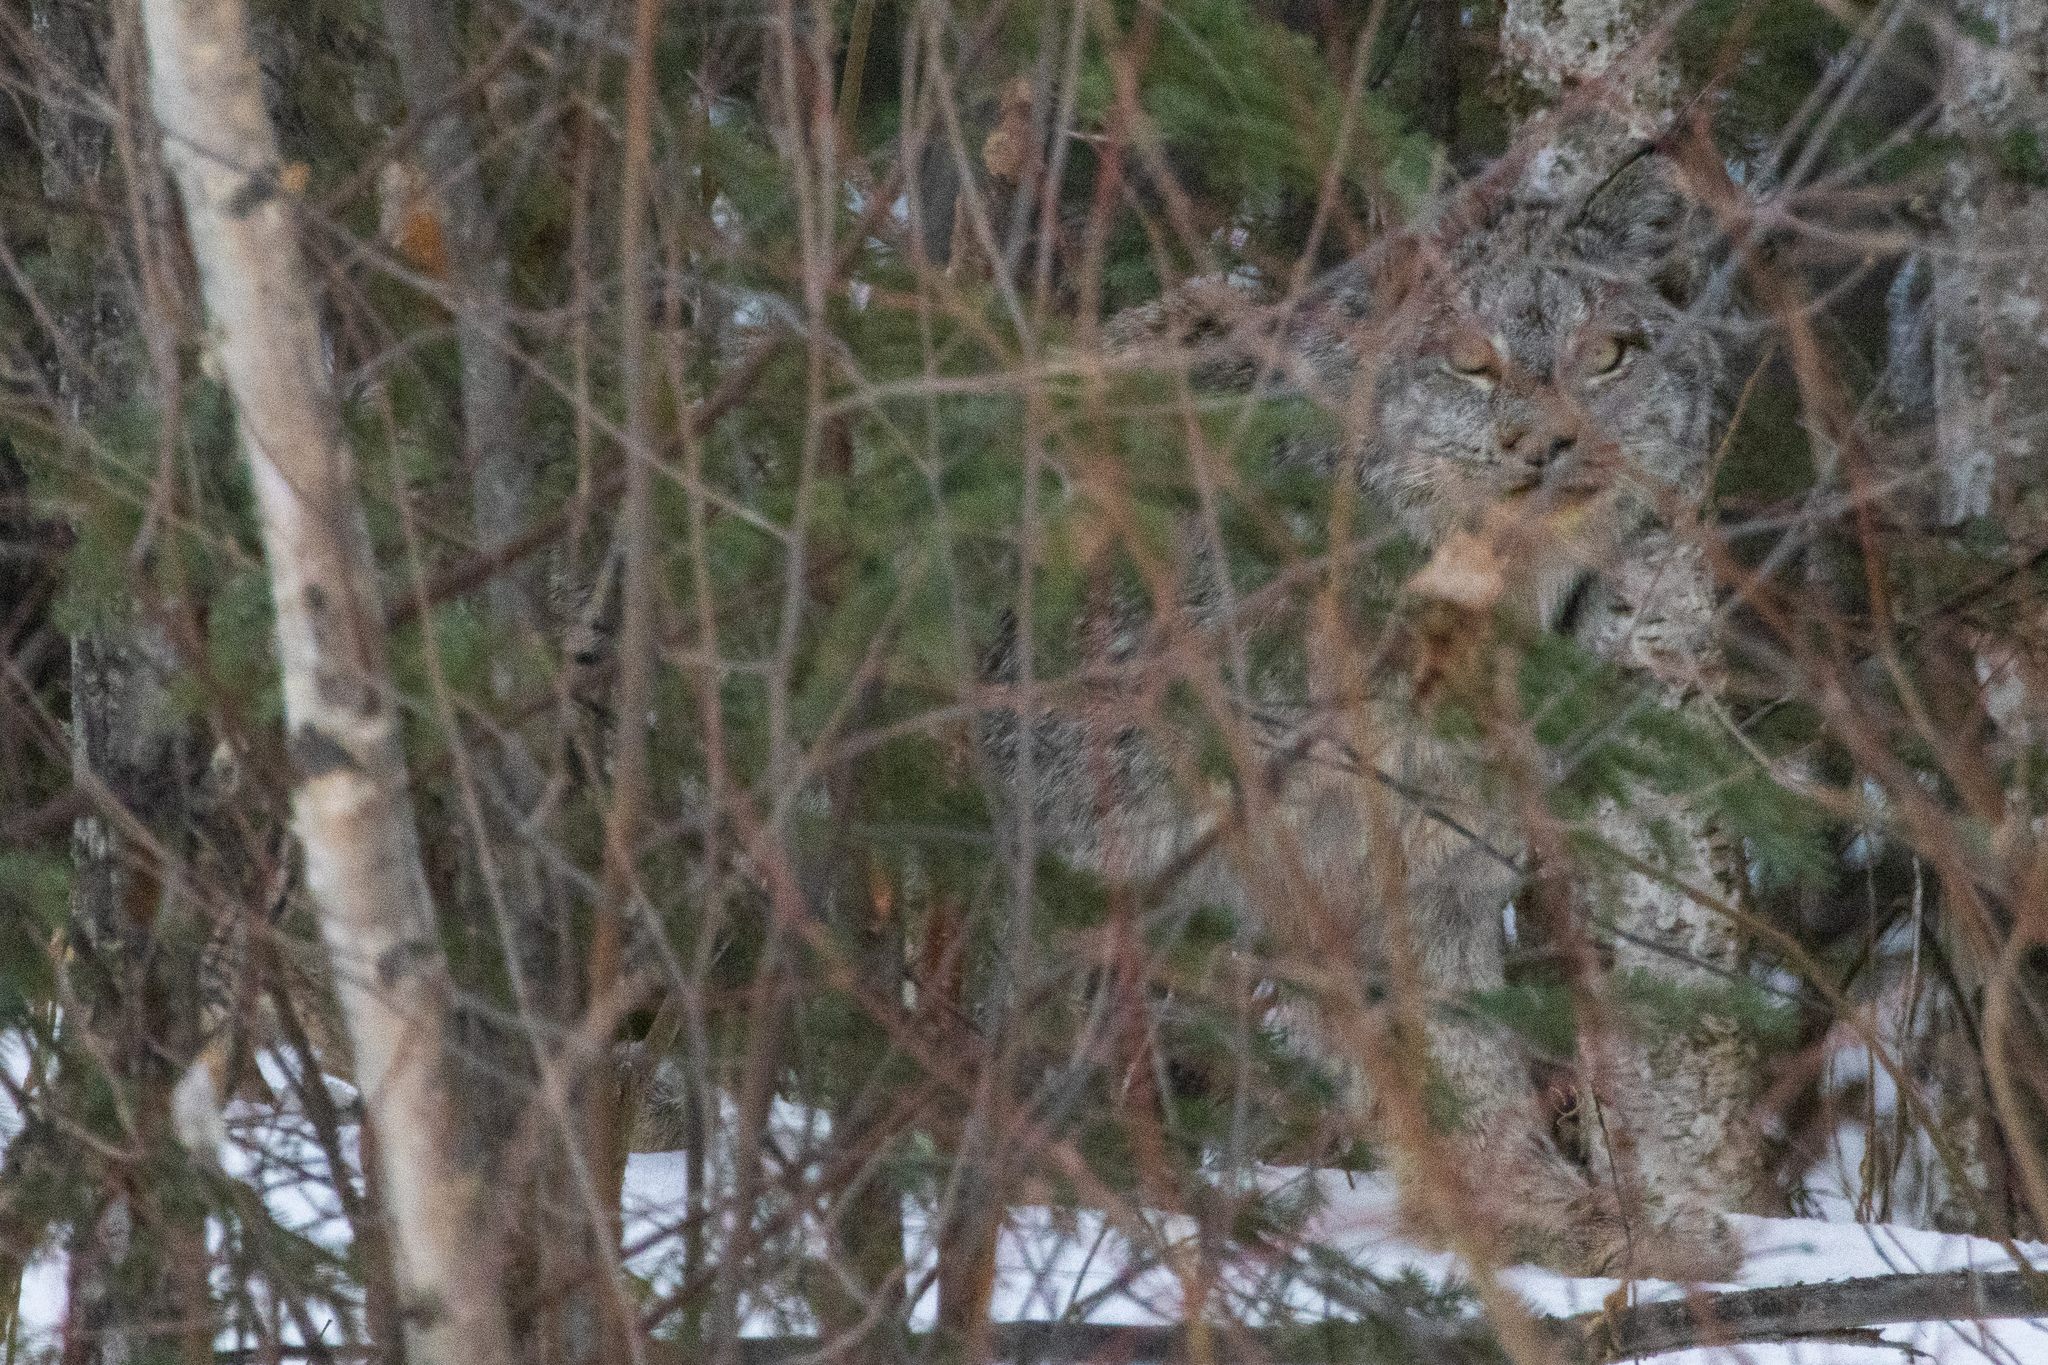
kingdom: Animalia
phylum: Chordata
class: Mammalia
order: Carnivora
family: Felidae
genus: Lynx
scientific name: Lynx canadensis
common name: Canadian lynx
